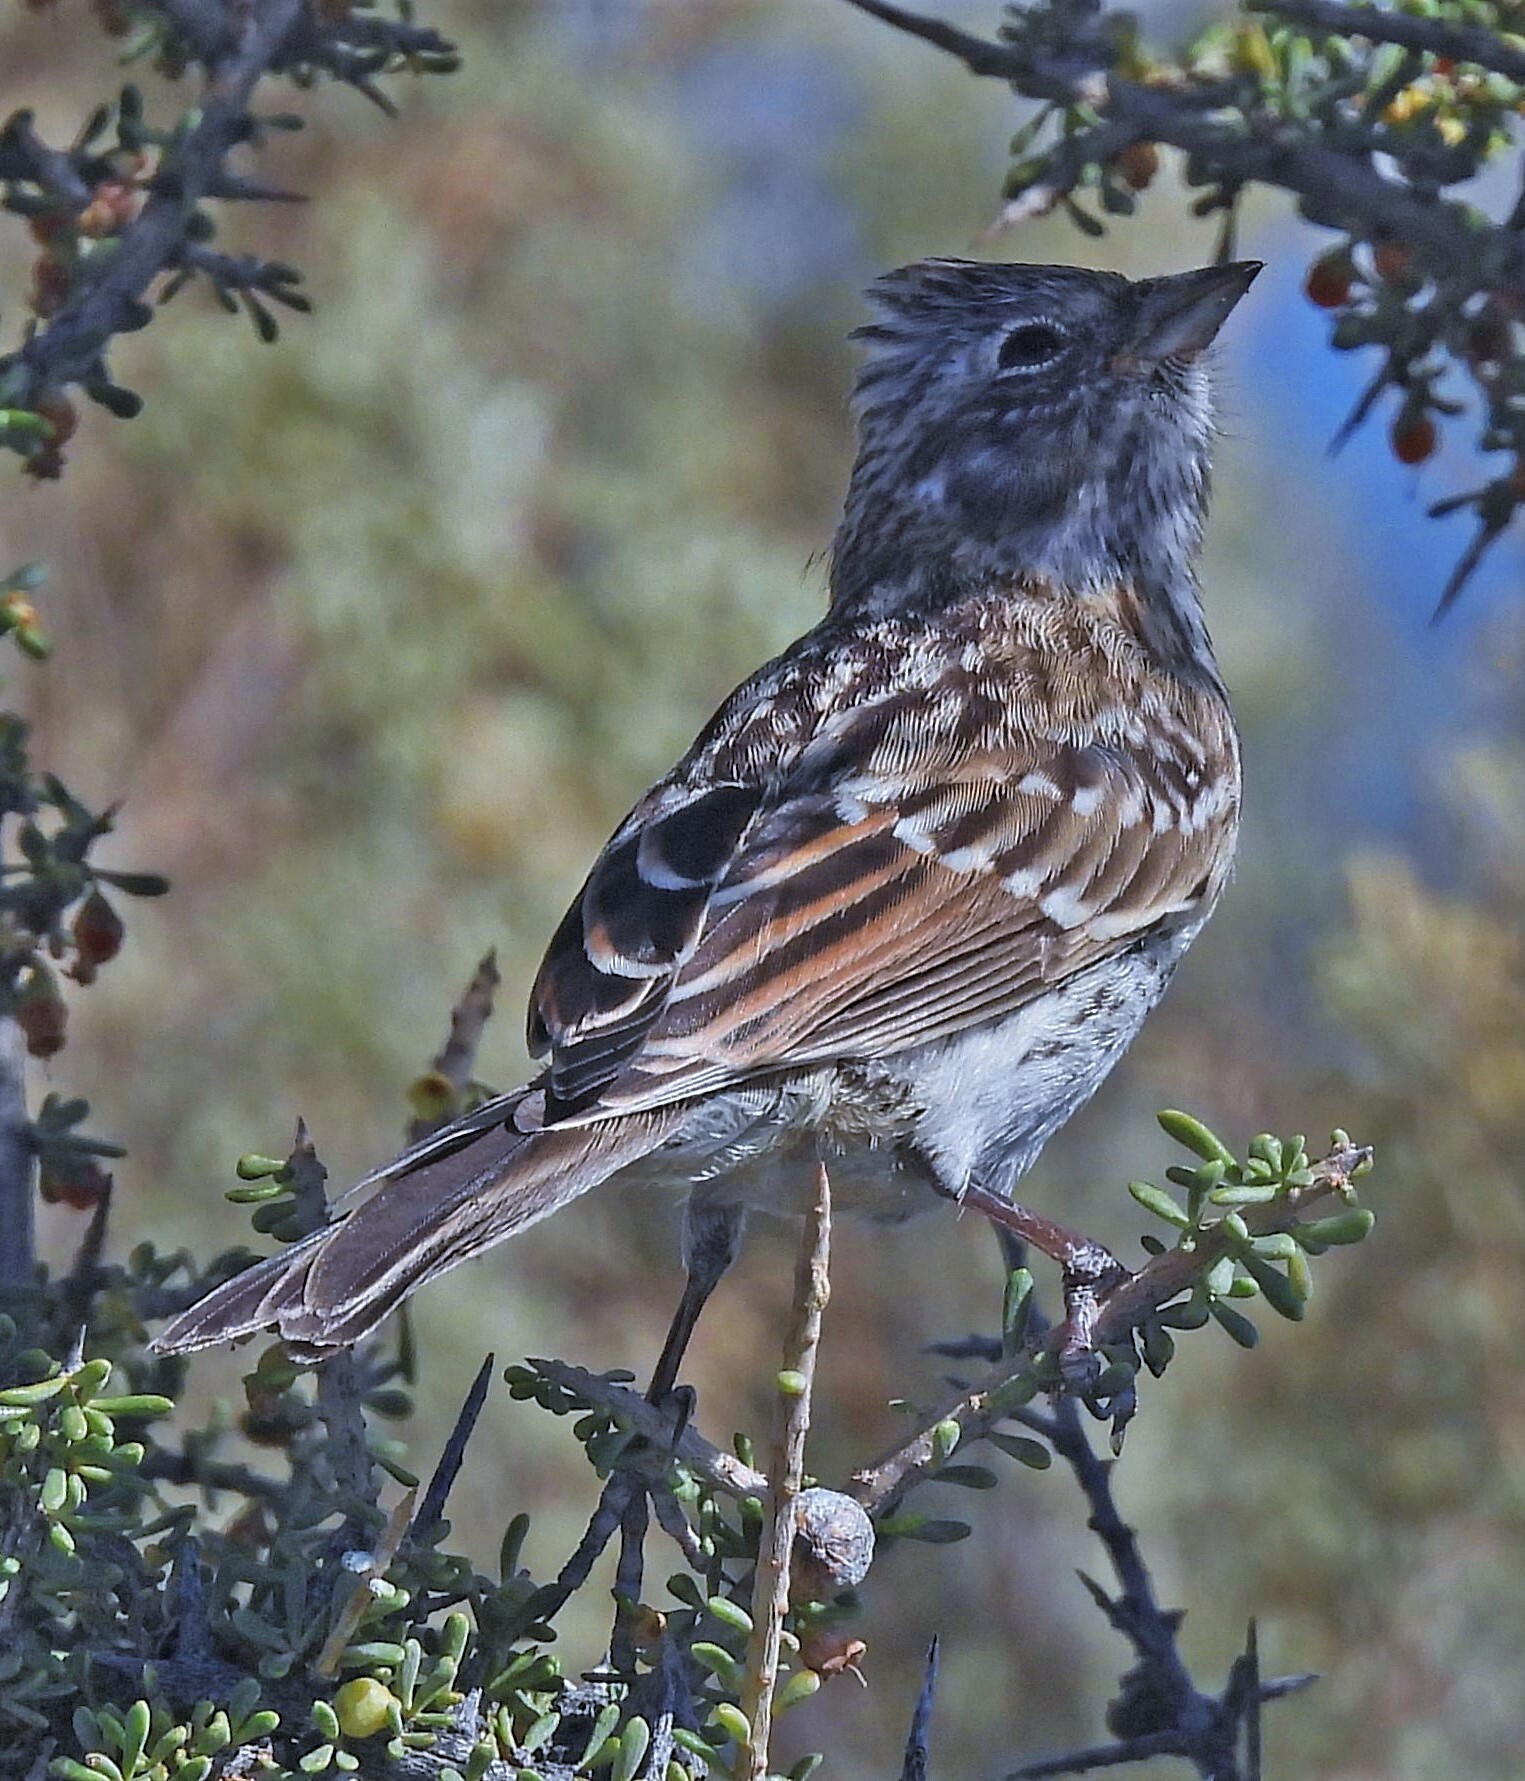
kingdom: Animalia
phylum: Chordata
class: Aves
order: Passeriformes
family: Passerellidae
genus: Zonotrichia
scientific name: Zonotrichia capensis
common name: Rufous-collared sparrow
